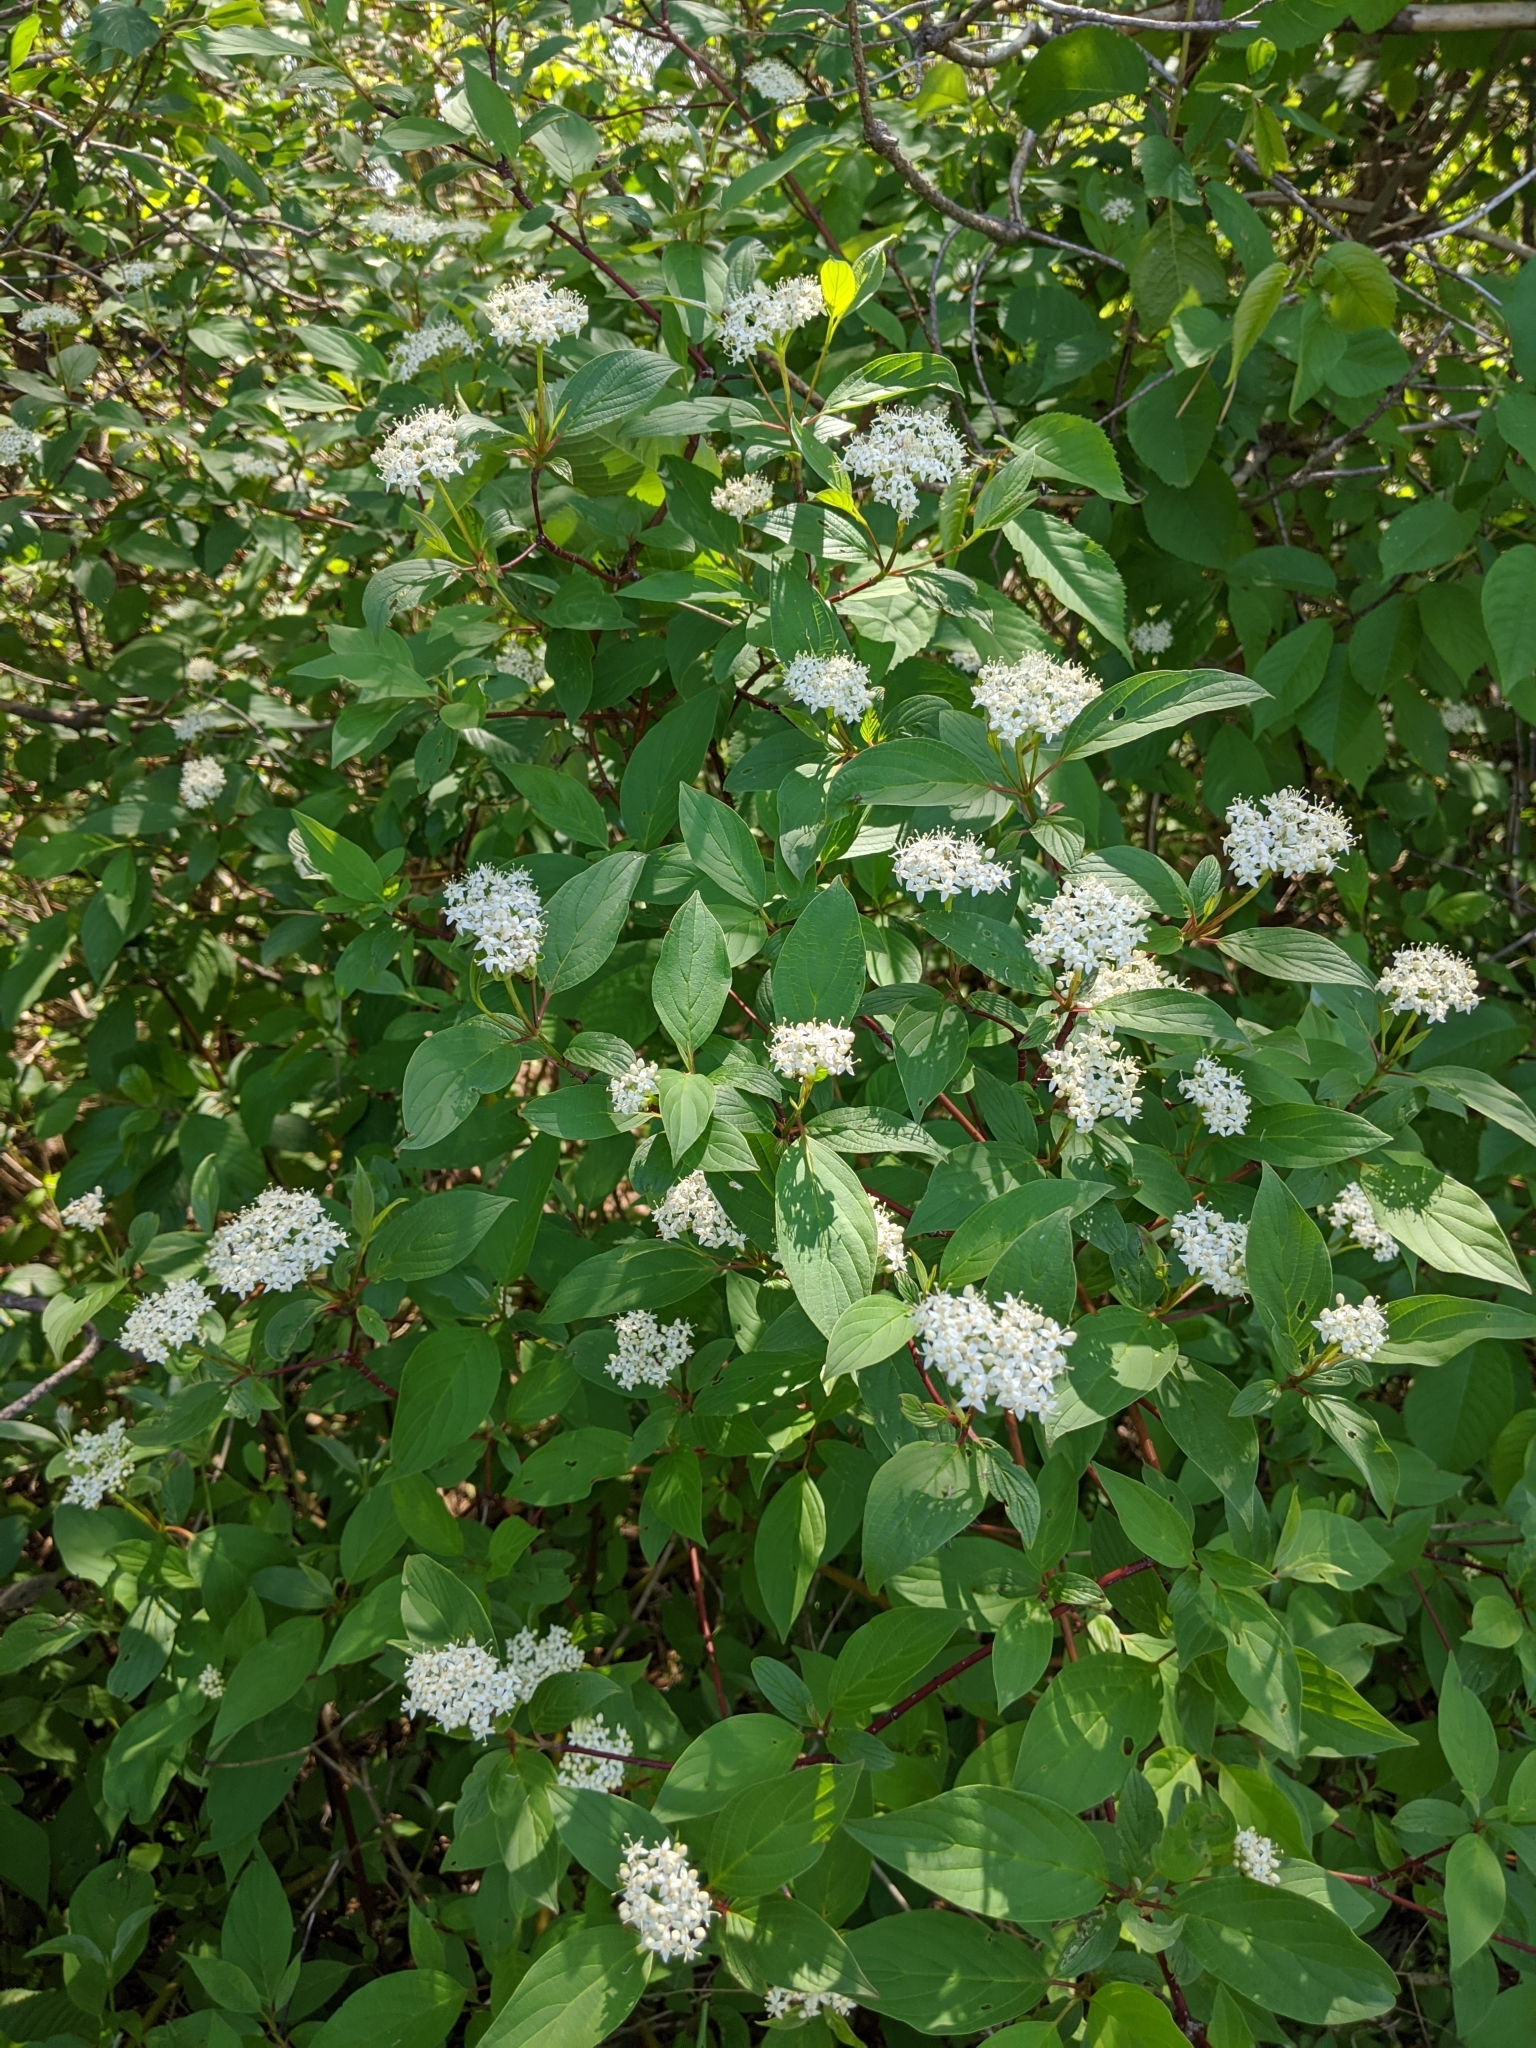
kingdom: Plantae
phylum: Tracheophyta
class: Magnoliopsida
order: Cornales
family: Cornaceae
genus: Cornus
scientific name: Cornus sericea
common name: Red-osier dogwood
